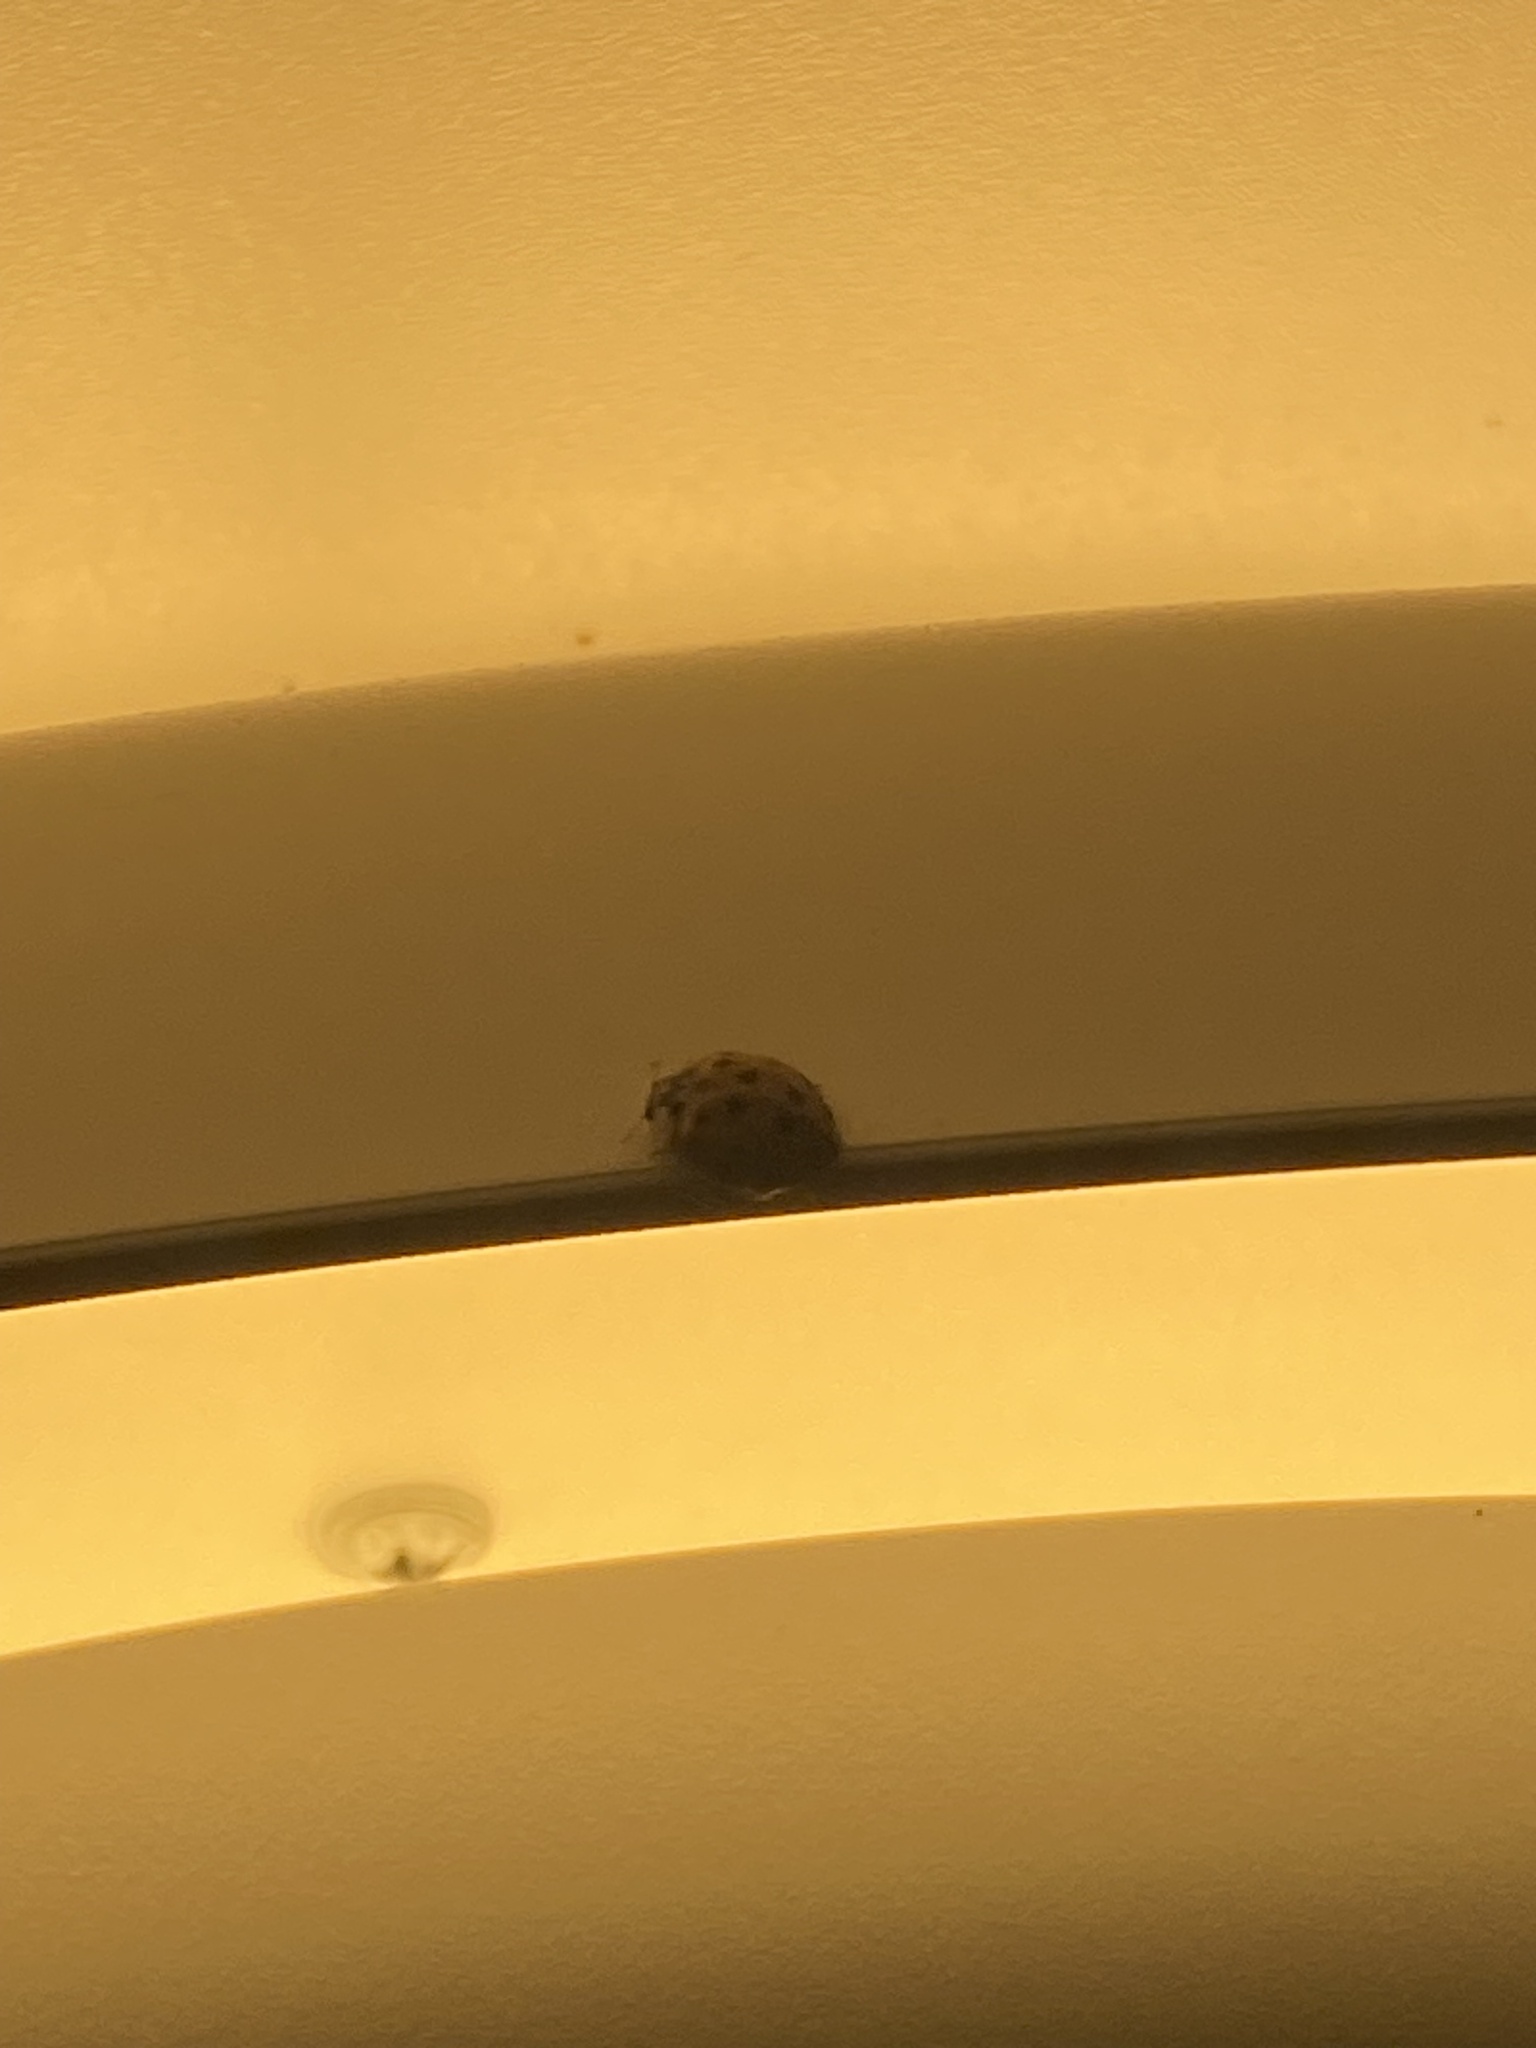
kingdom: Animalia
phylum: Arthropoda
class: Insecta
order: Coleoptera
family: Coccinellidae
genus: Harmonia
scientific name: Harmonia axyridis
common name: Harlequin ladybird
